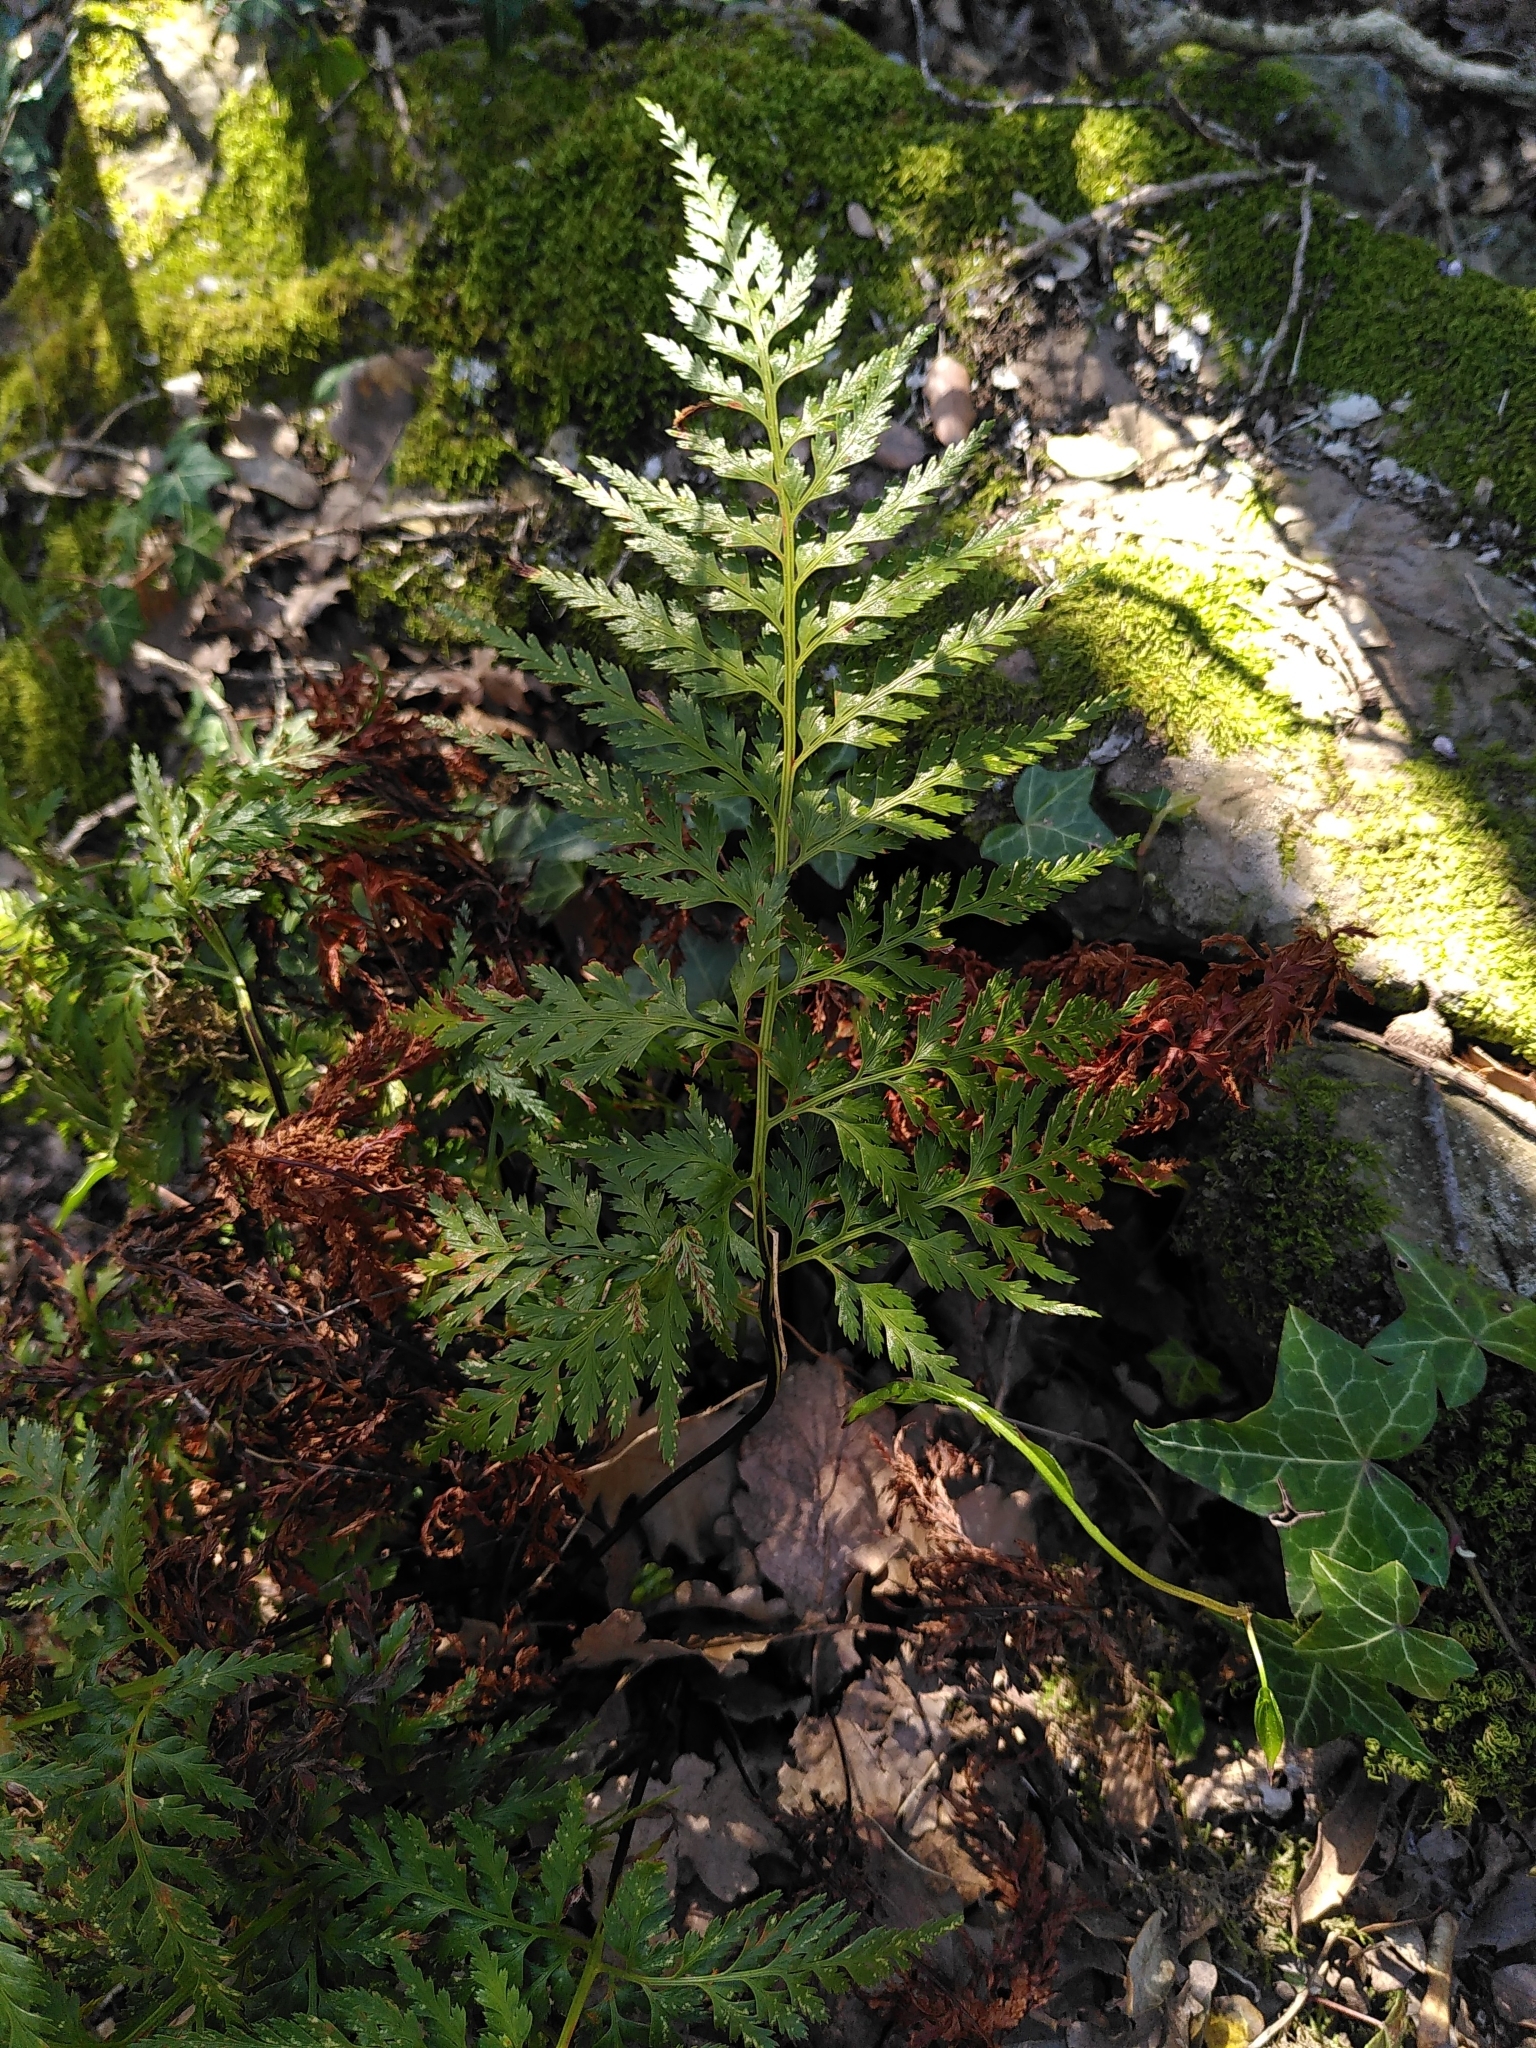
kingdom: Plantae
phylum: Tracheophyta
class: Polypodiopsida
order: Polypodiales
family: Aspleniaceae
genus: Asplenium
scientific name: Asplenium onopteris
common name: Irish spleenwort
